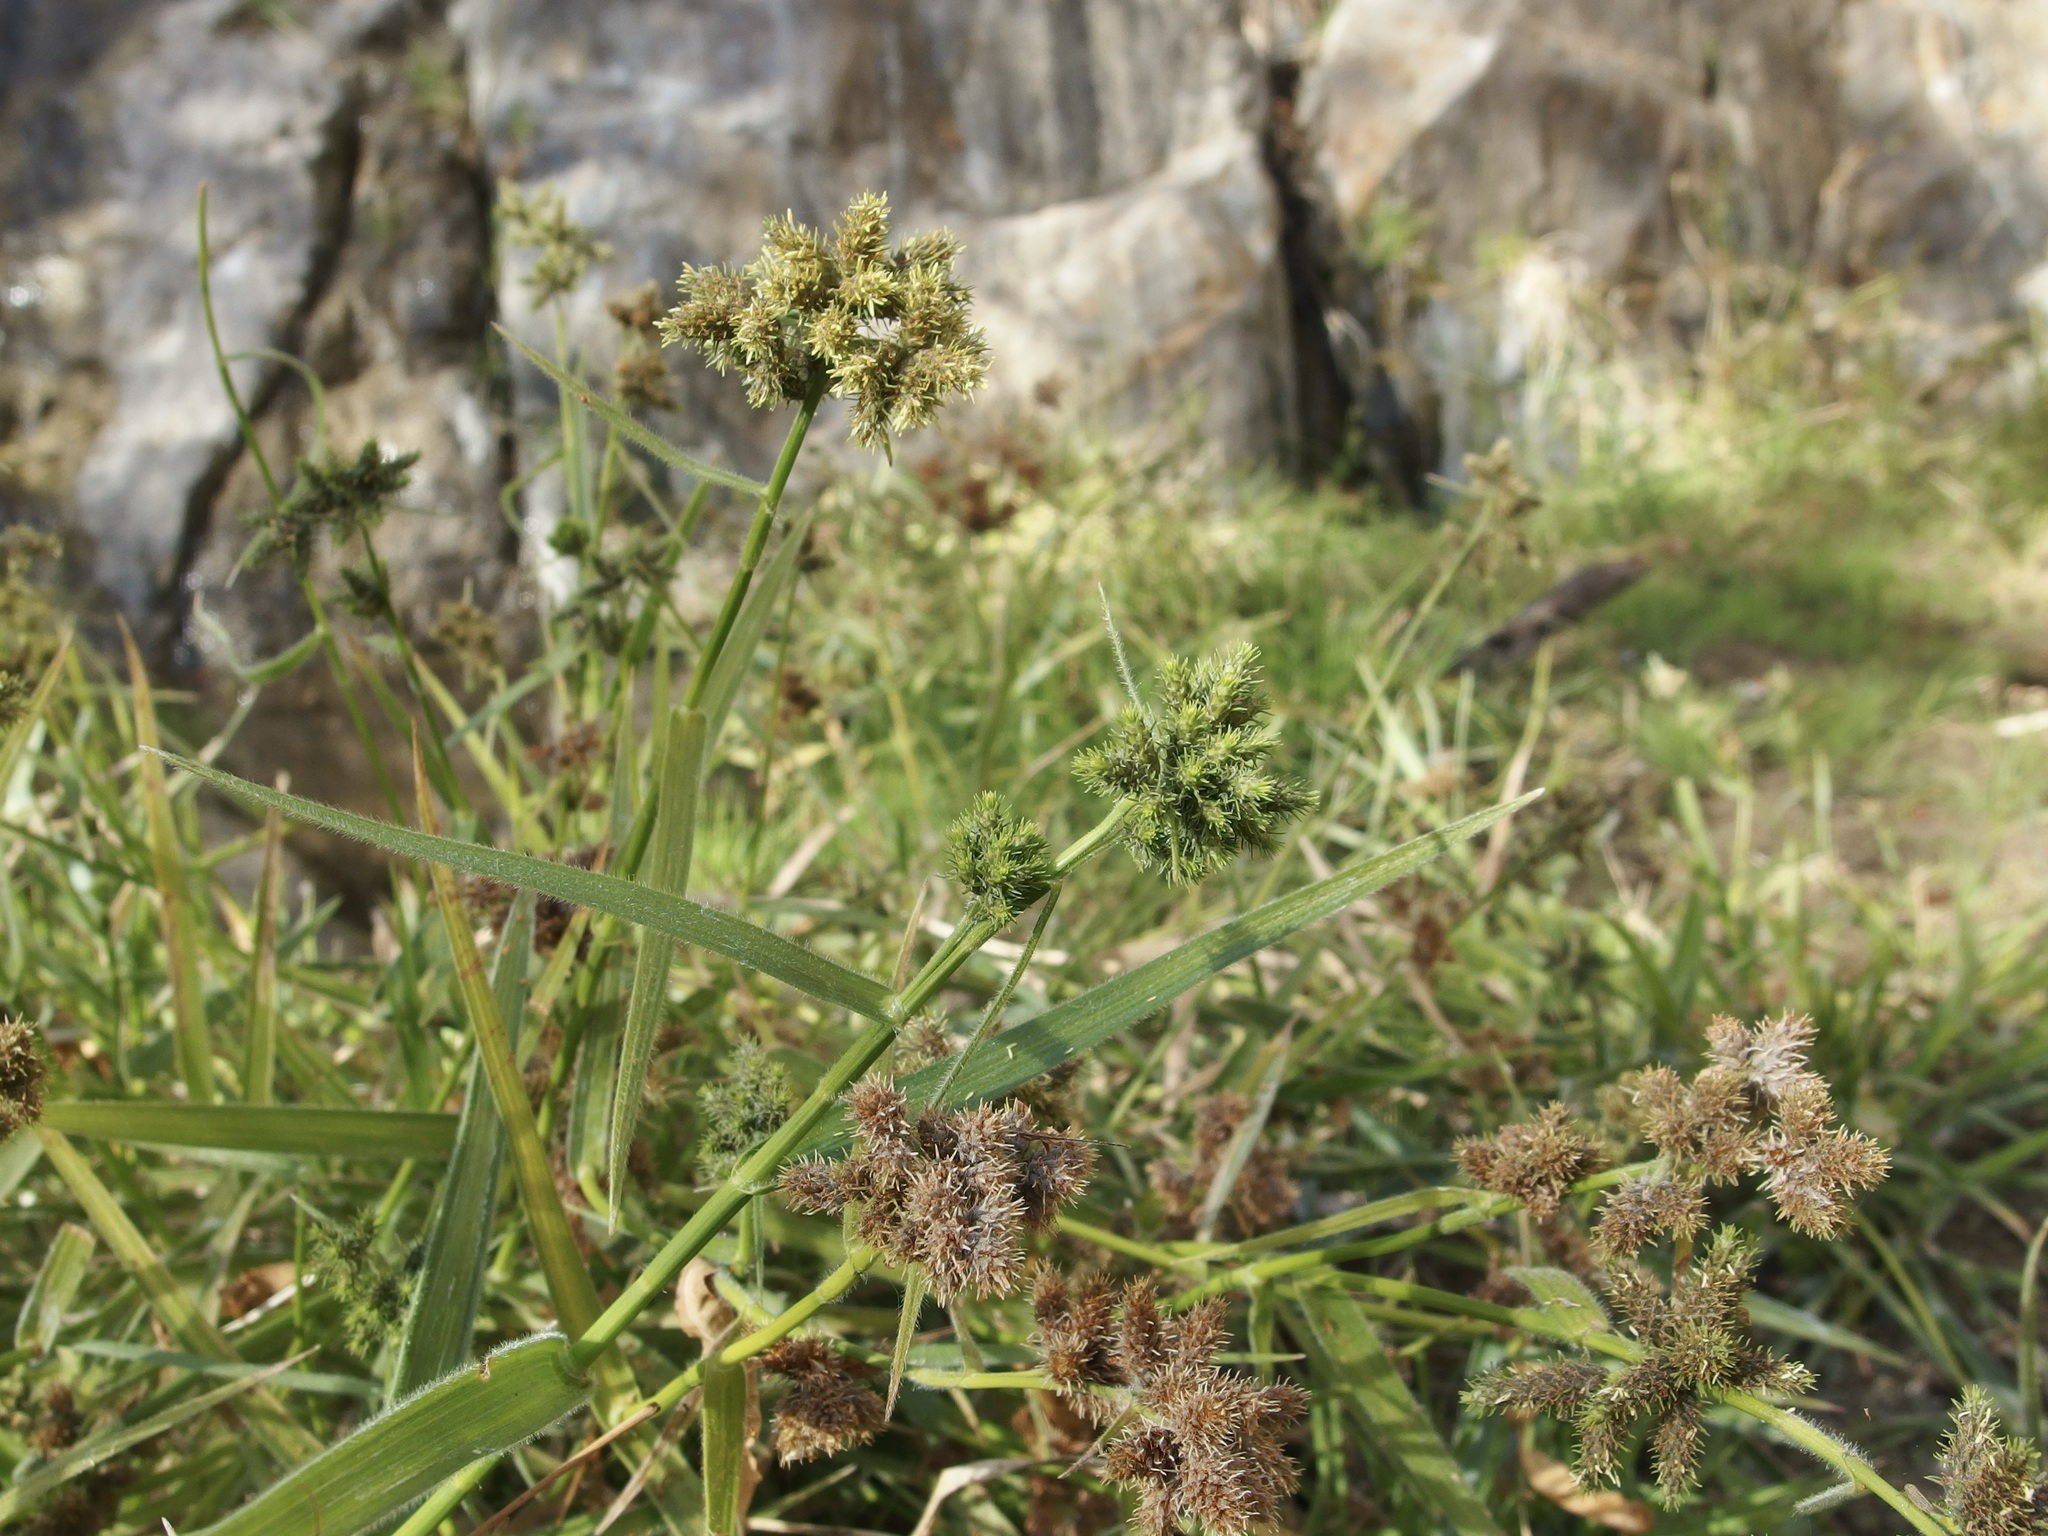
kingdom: Plantae
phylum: Tracheophyta
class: Liliopsida
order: Poales
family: Cyperaceae
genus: Fuirena
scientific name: Fuirena simplex
